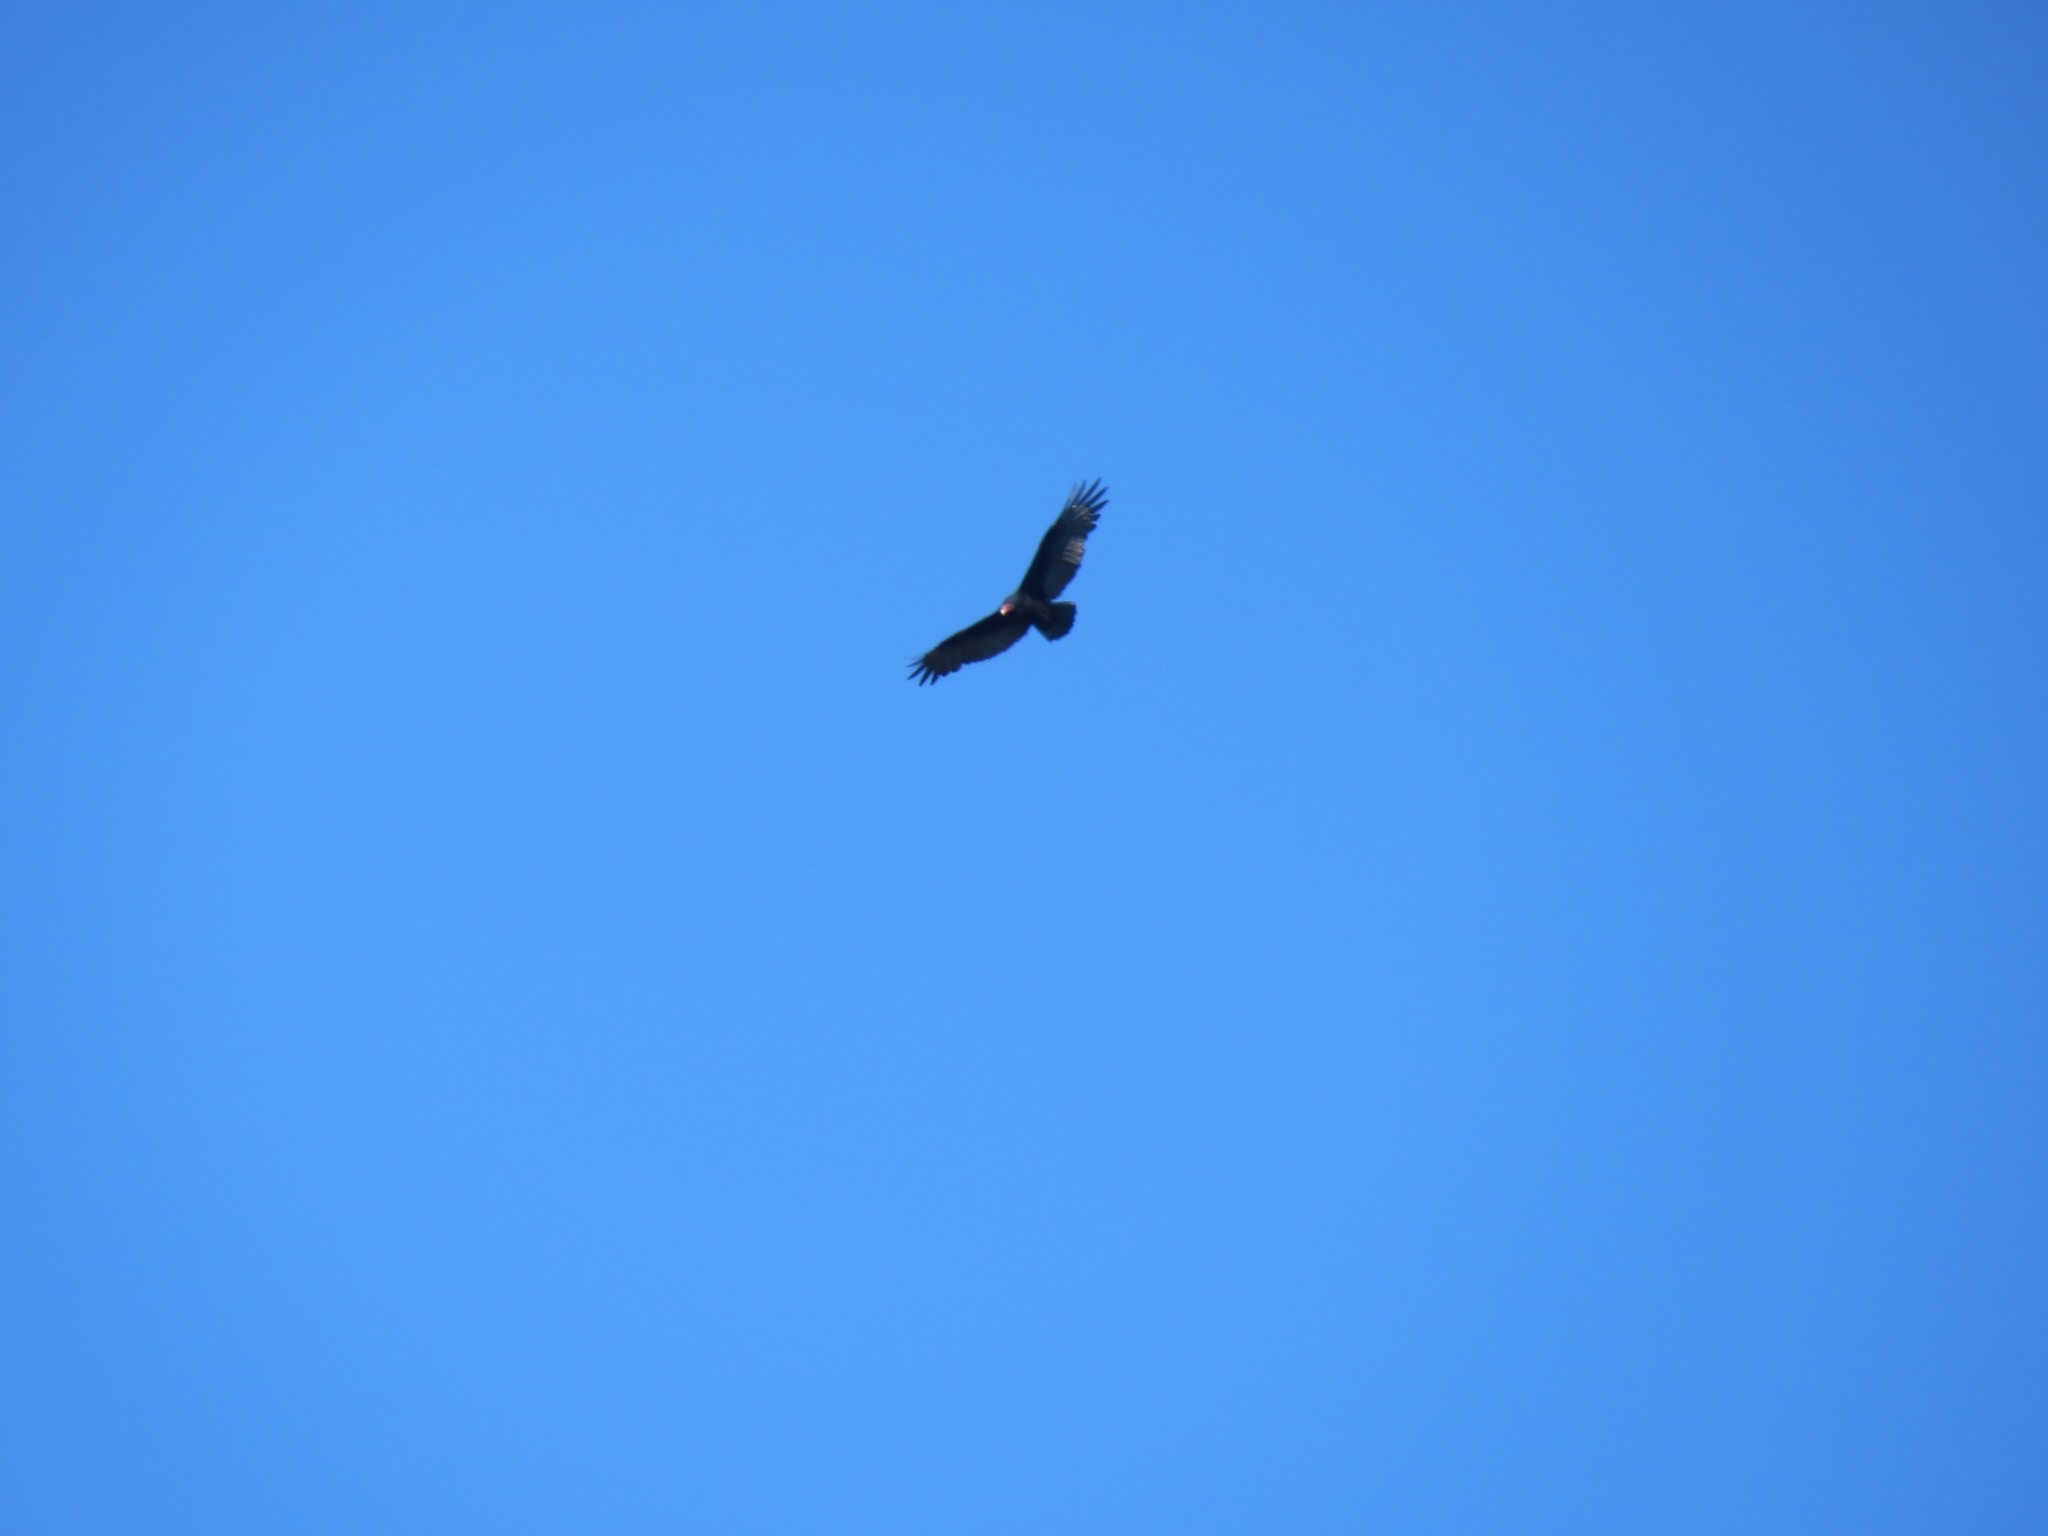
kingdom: Animalia
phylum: Chordata
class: Aves
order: Accipitriformes
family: Cathartidae
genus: Cathartes
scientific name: Cathartes aura
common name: Turkey vulture
